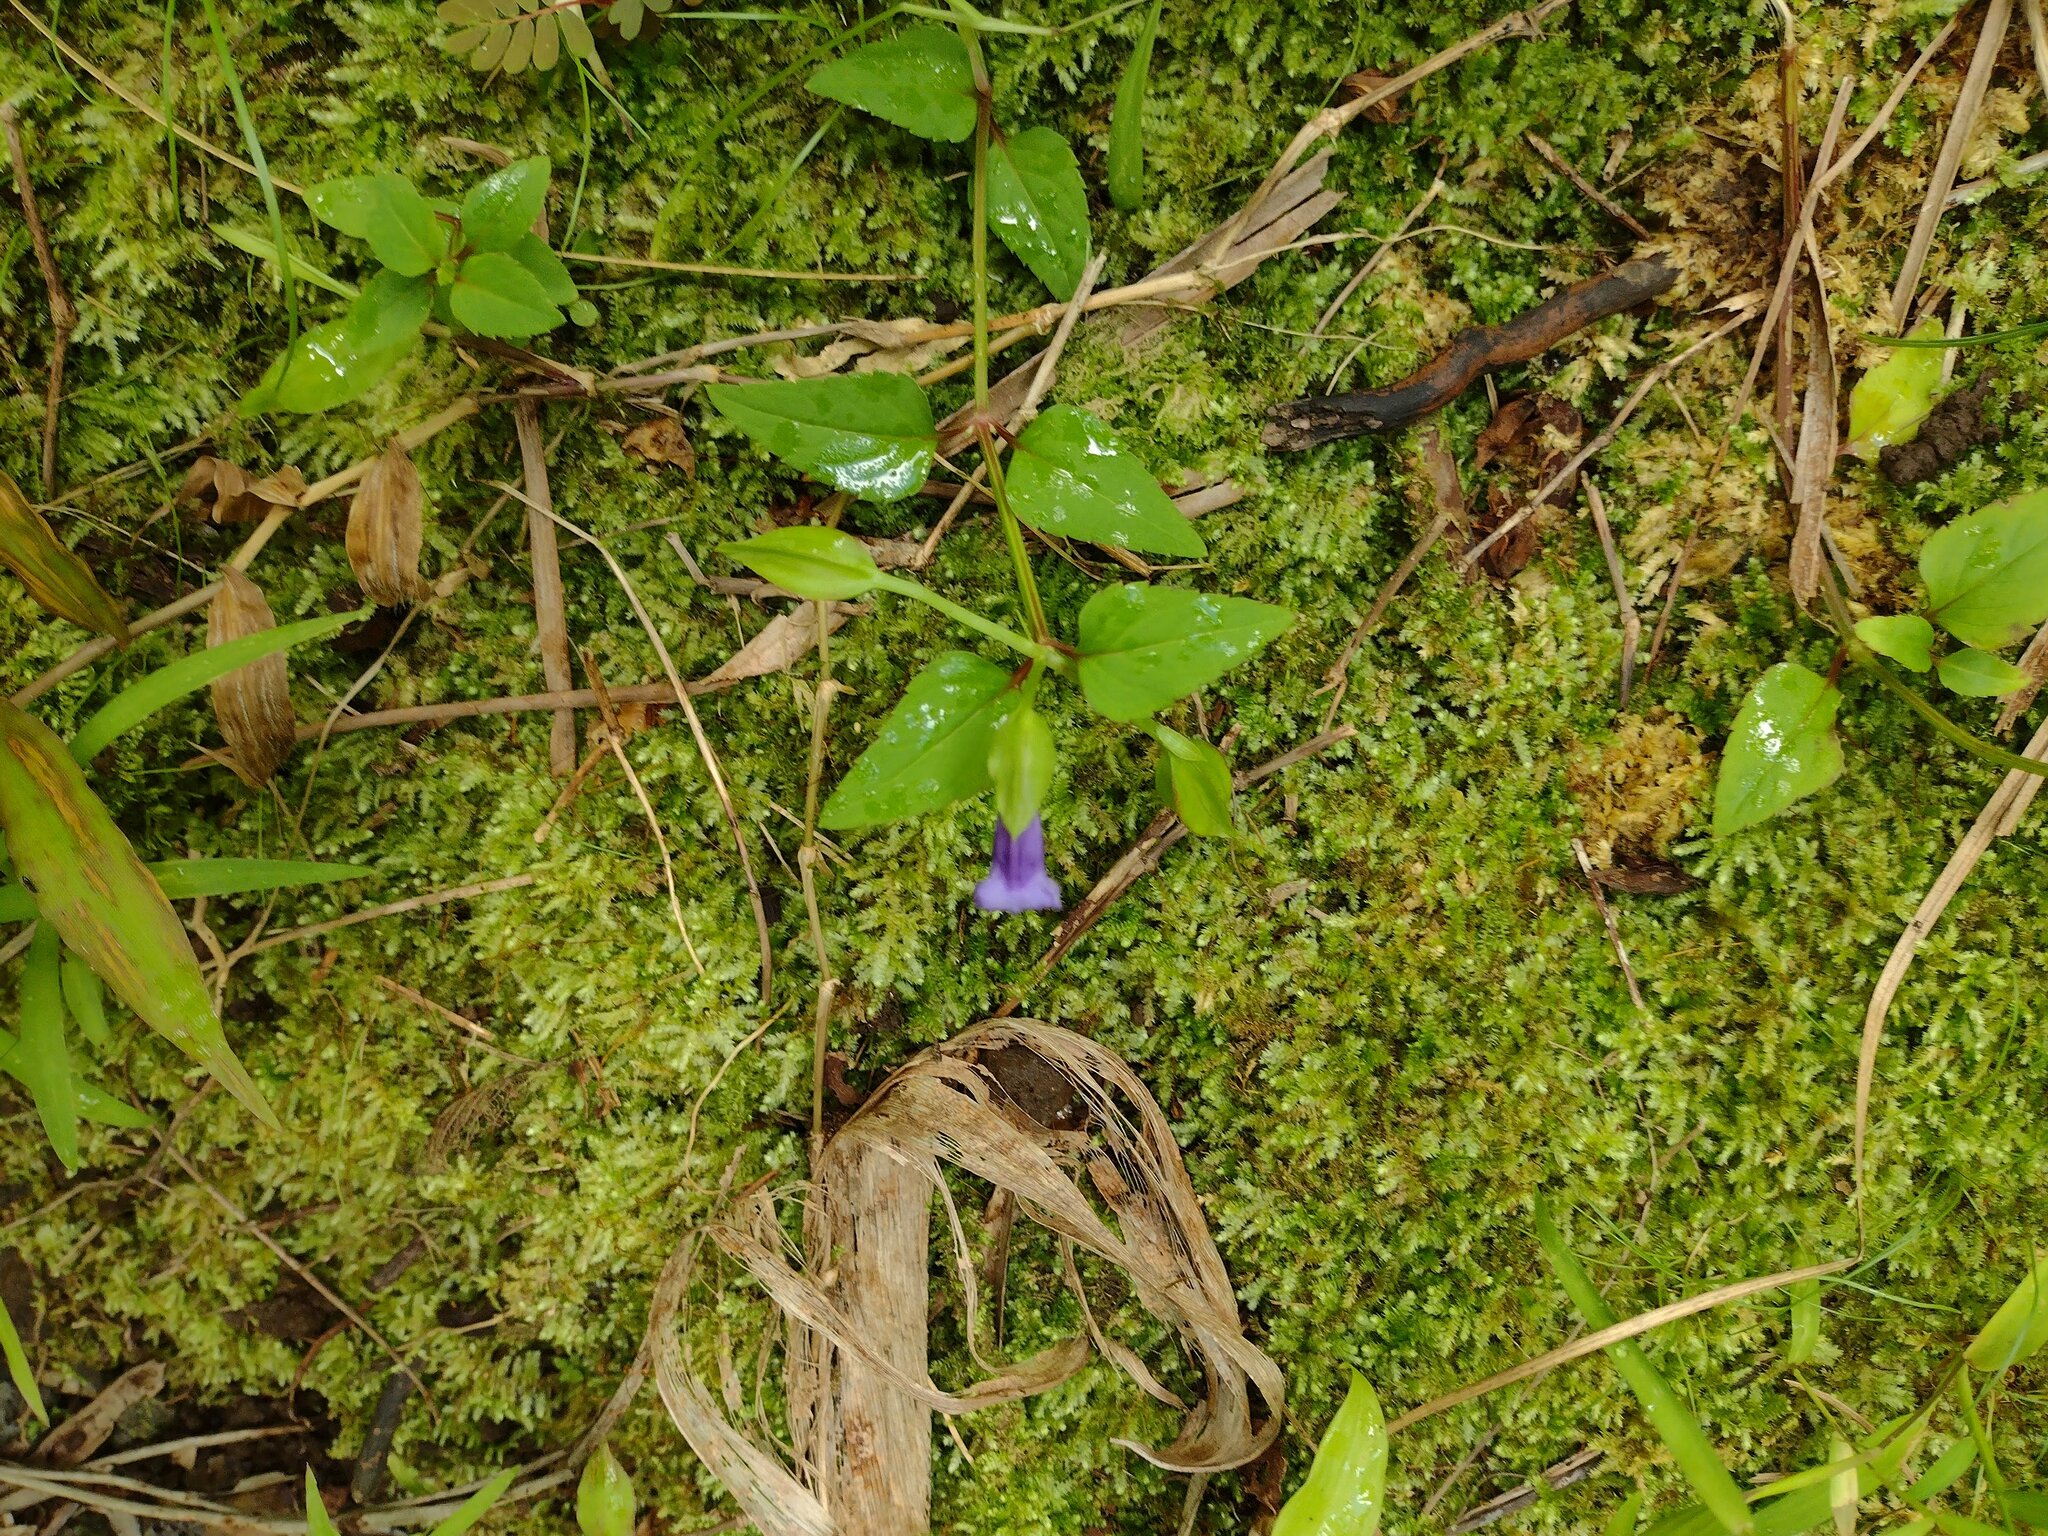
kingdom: Plantae
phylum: Tracheophyta
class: Magnoliopsida
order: Lamiales
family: Linderniaceae
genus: Torenia
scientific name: Torenia asiatica
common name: Wishbone flower
